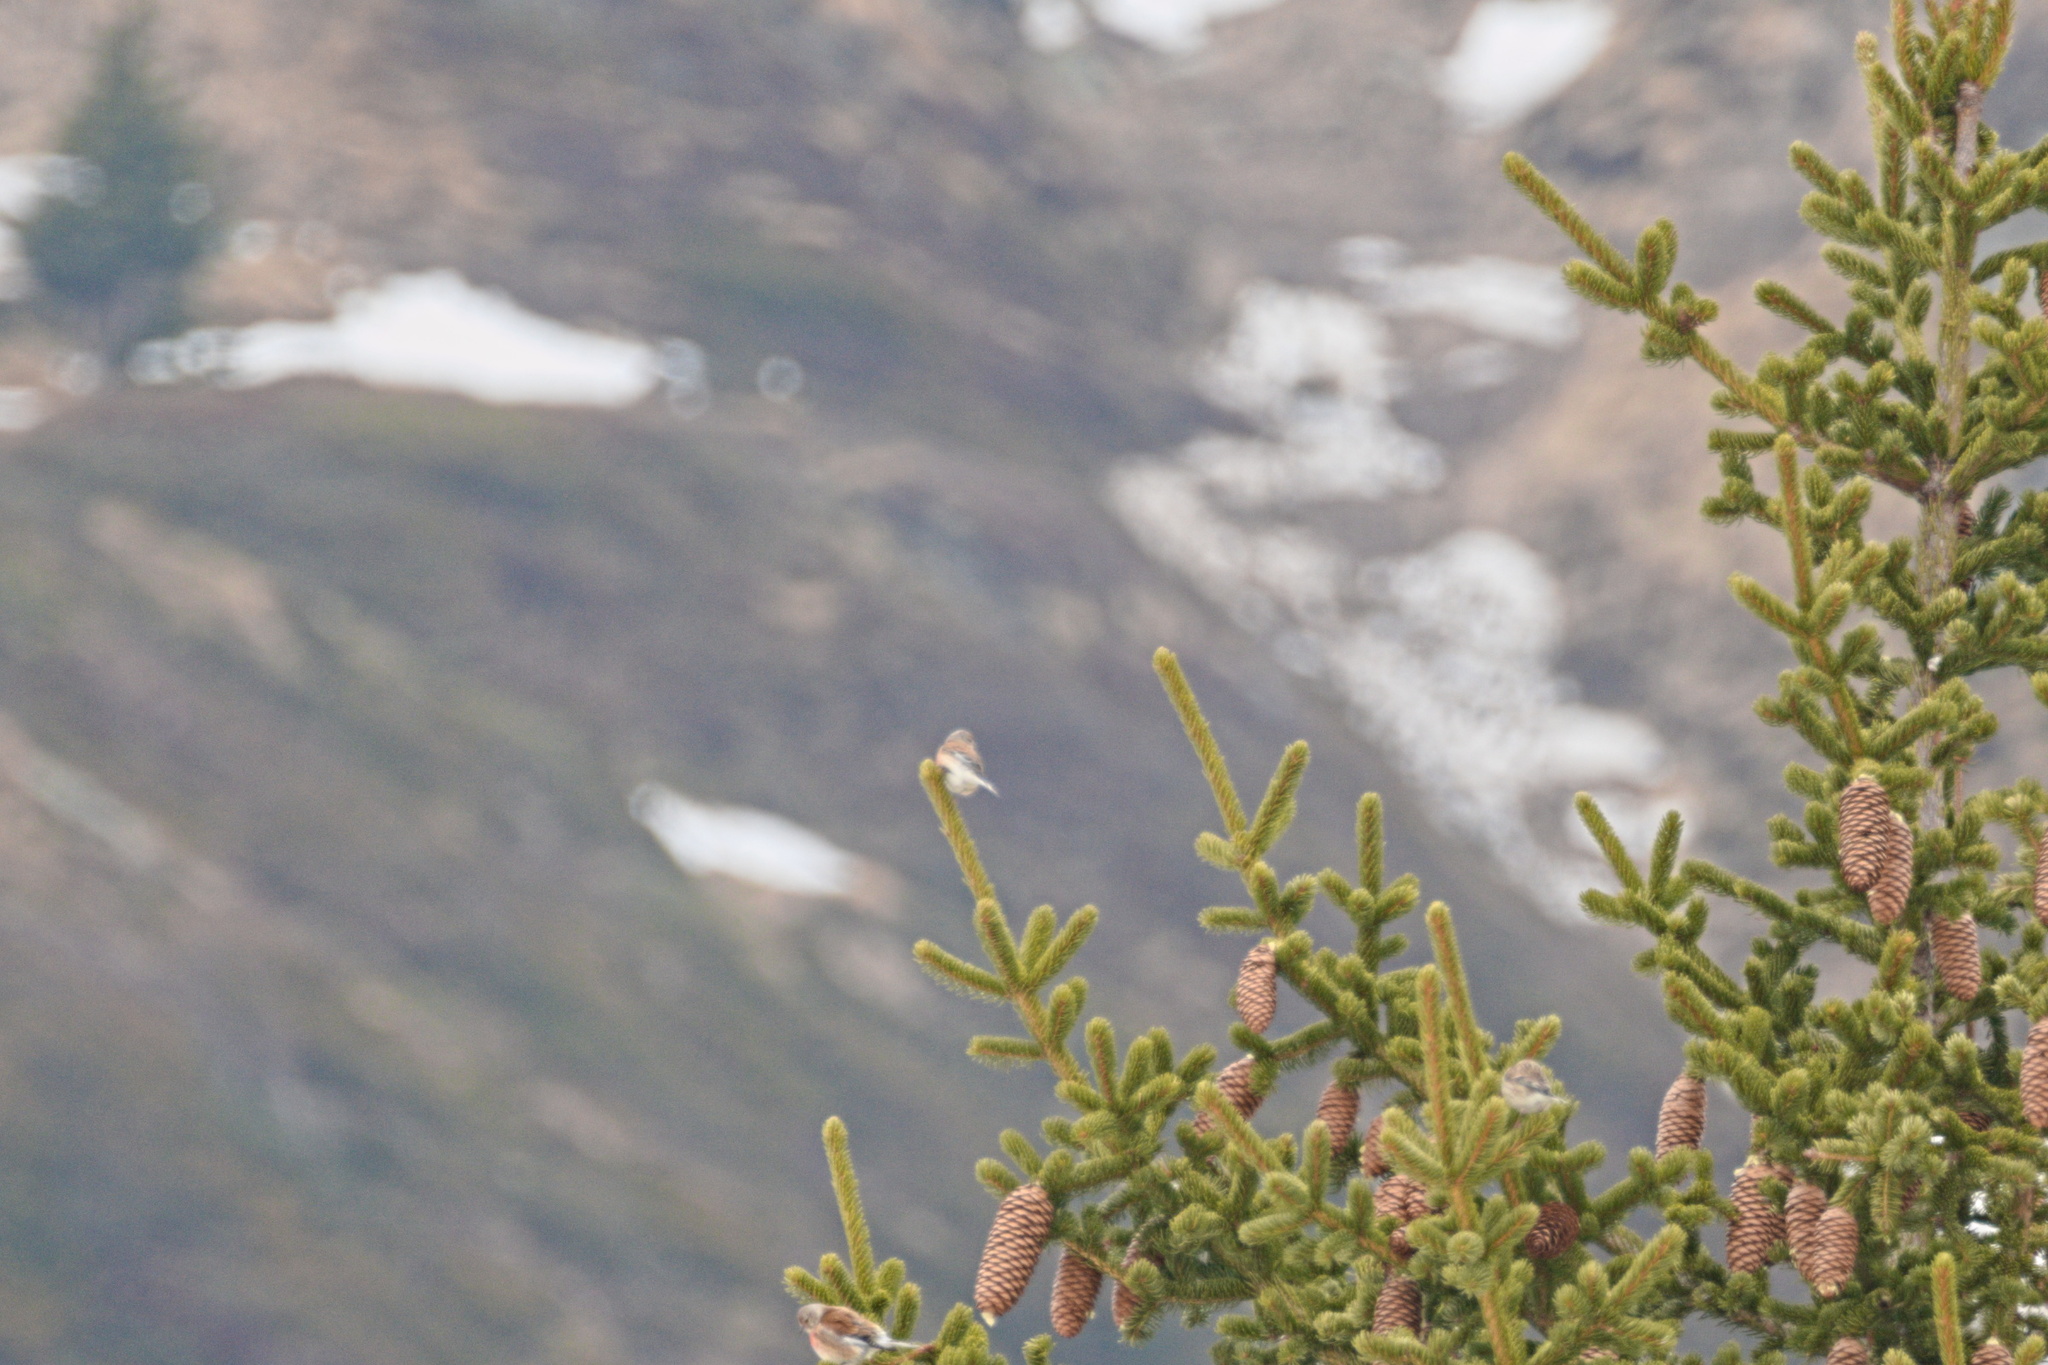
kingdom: Animalia
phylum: Chordata
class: Aves
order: Passeriformes
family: Fringillidae
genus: Linaria
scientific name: Linaria cannabina
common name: Common linnet
